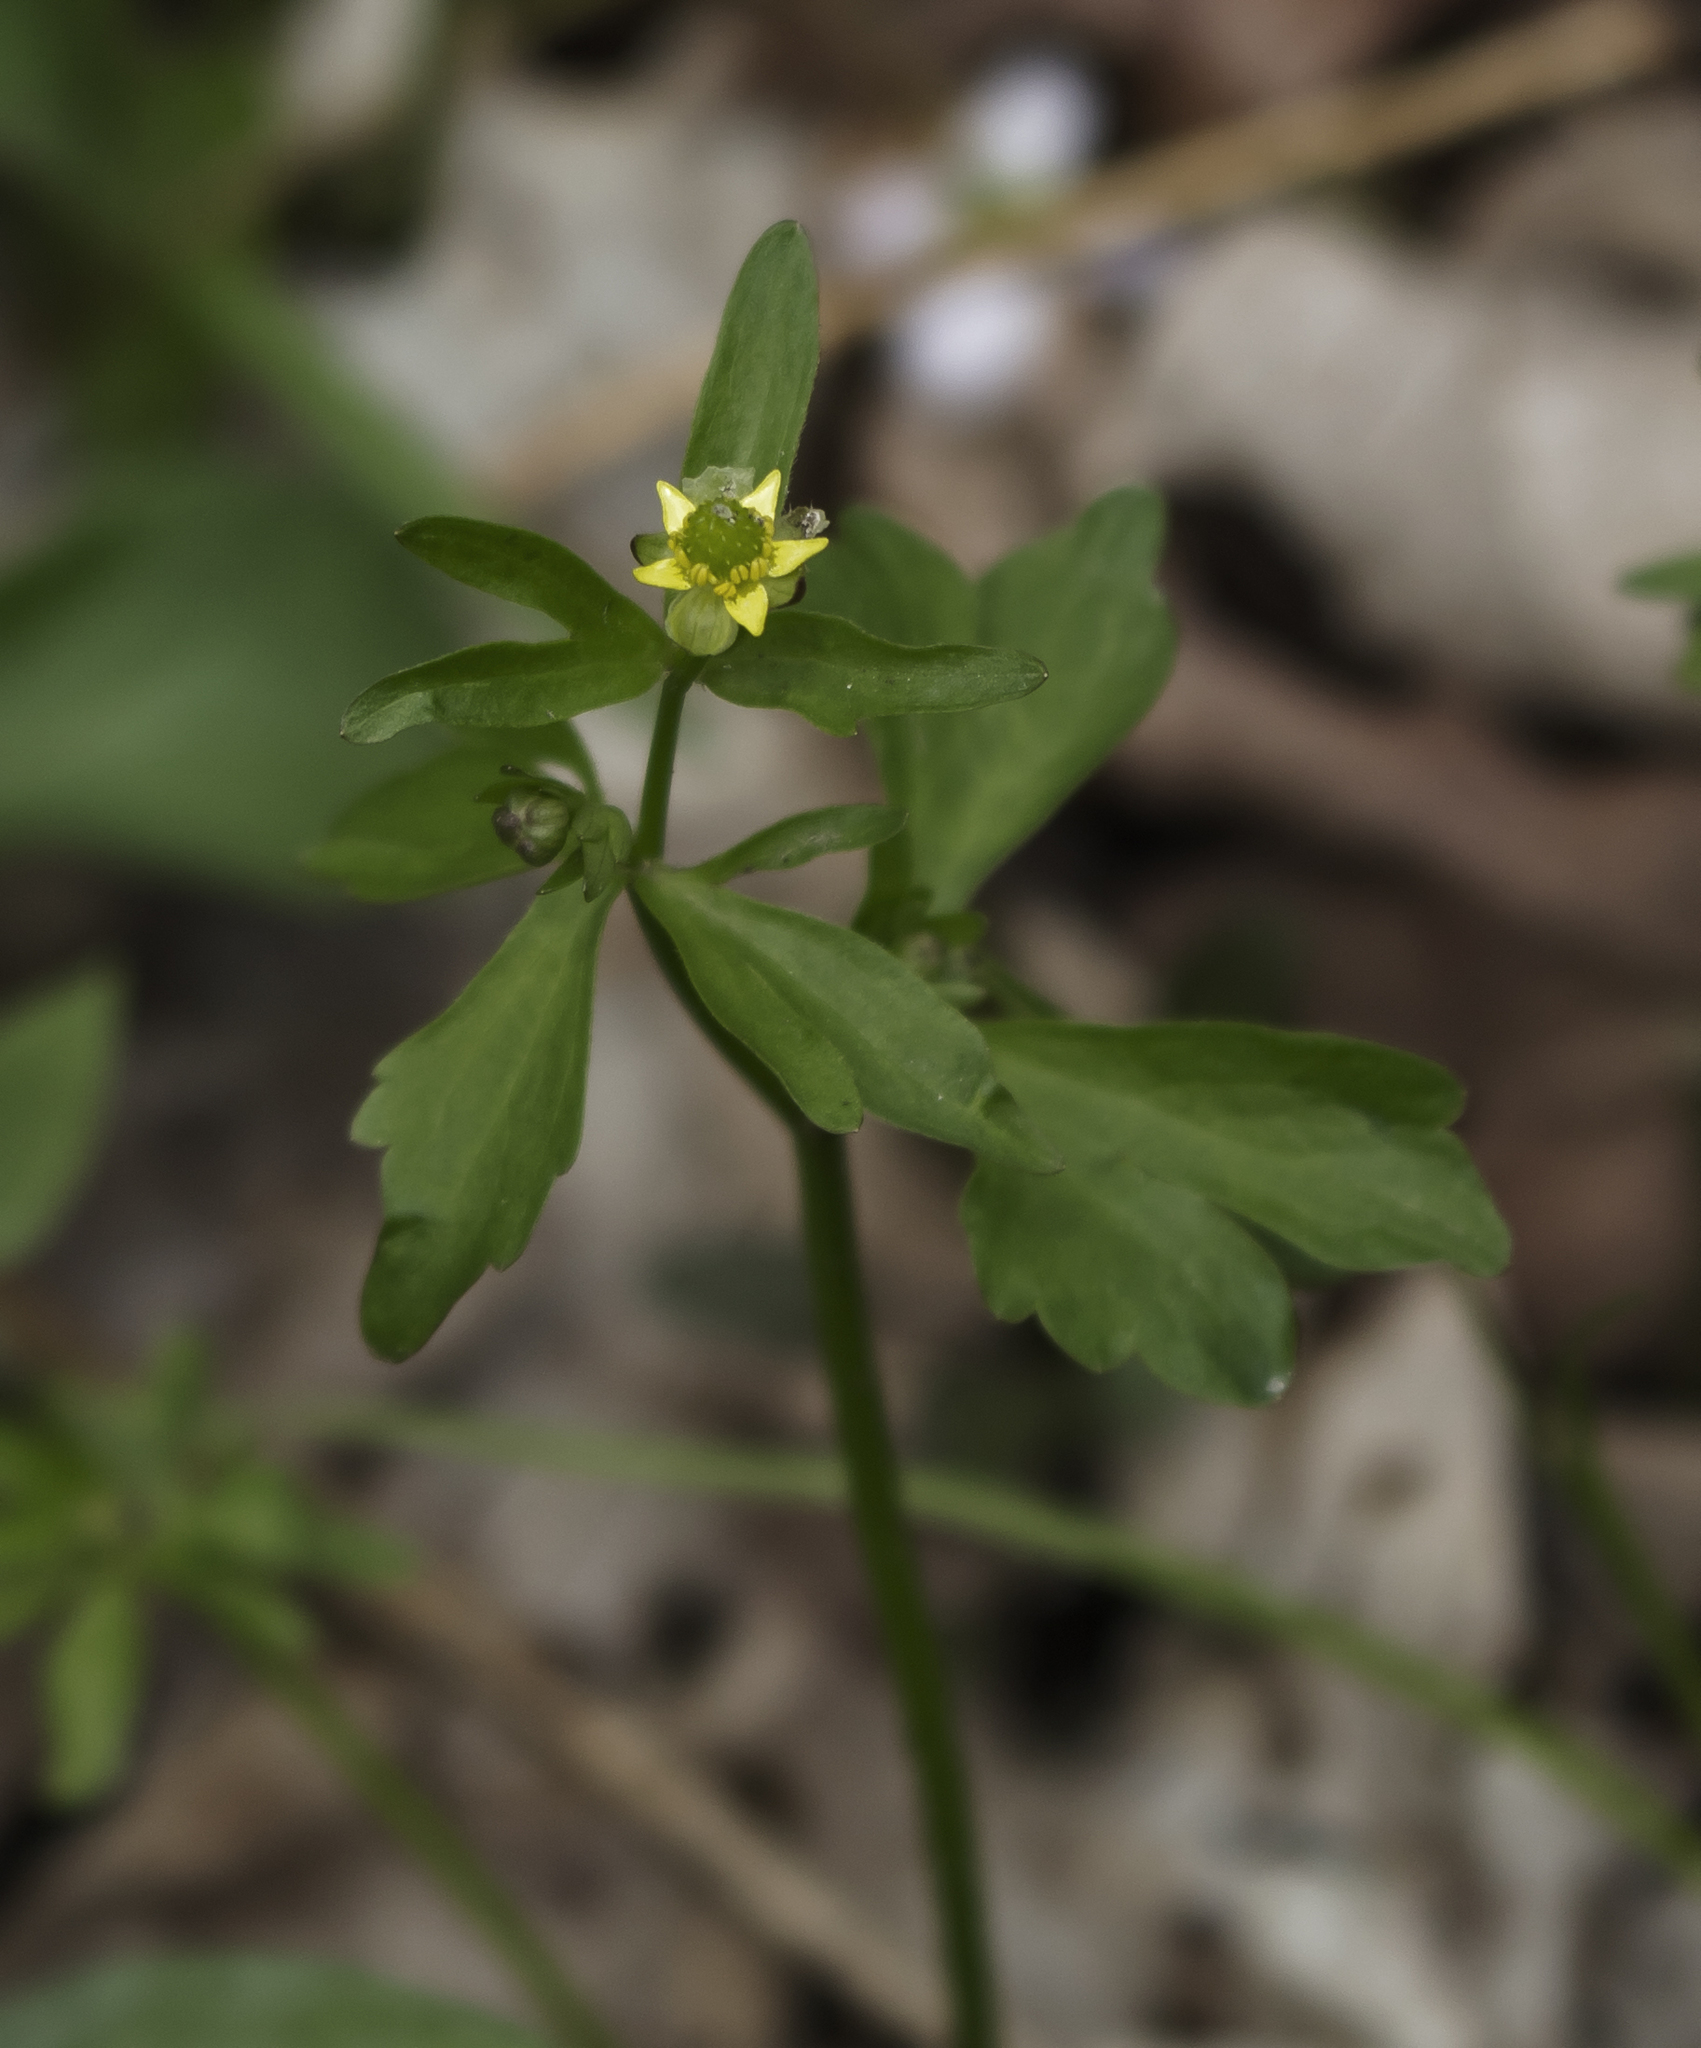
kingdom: Plantae
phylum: Tracheophyta
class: Magnoliopsida
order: Ranunculales
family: Ranunculaceae
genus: Ranunculus
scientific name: Ranunculus abortivus
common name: Early wood buttercup
